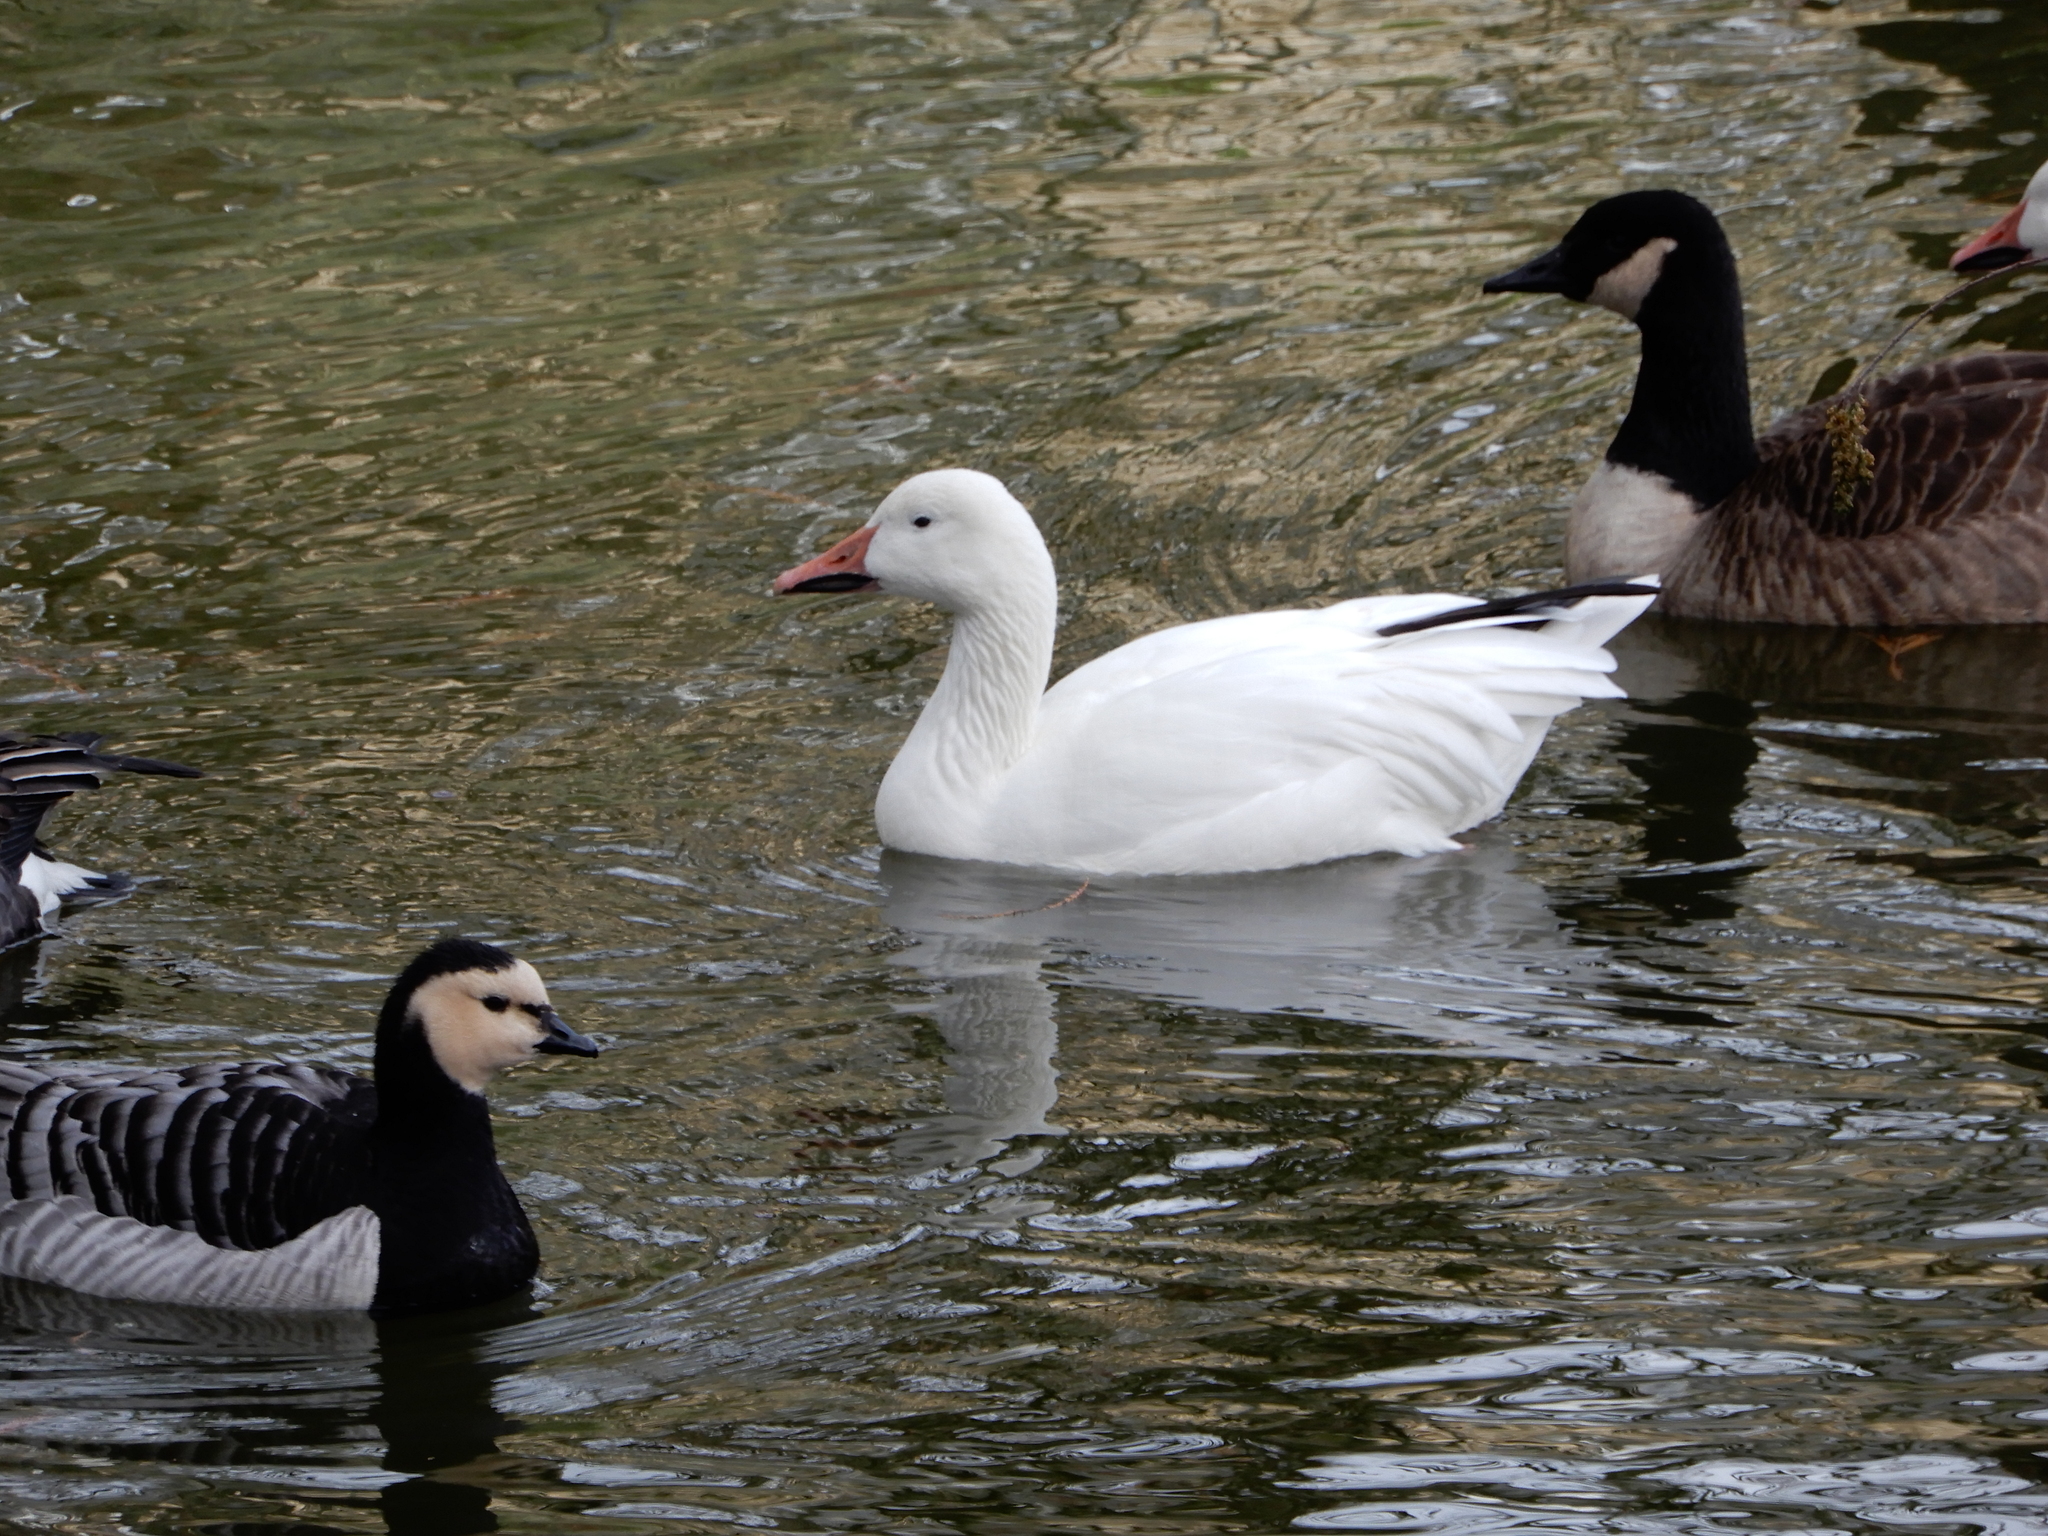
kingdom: Animalia
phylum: Chordata
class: Aves
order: Anseriformes
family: Anatidae
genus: Anser
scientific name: Anser caerulescens
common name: Snow goose
